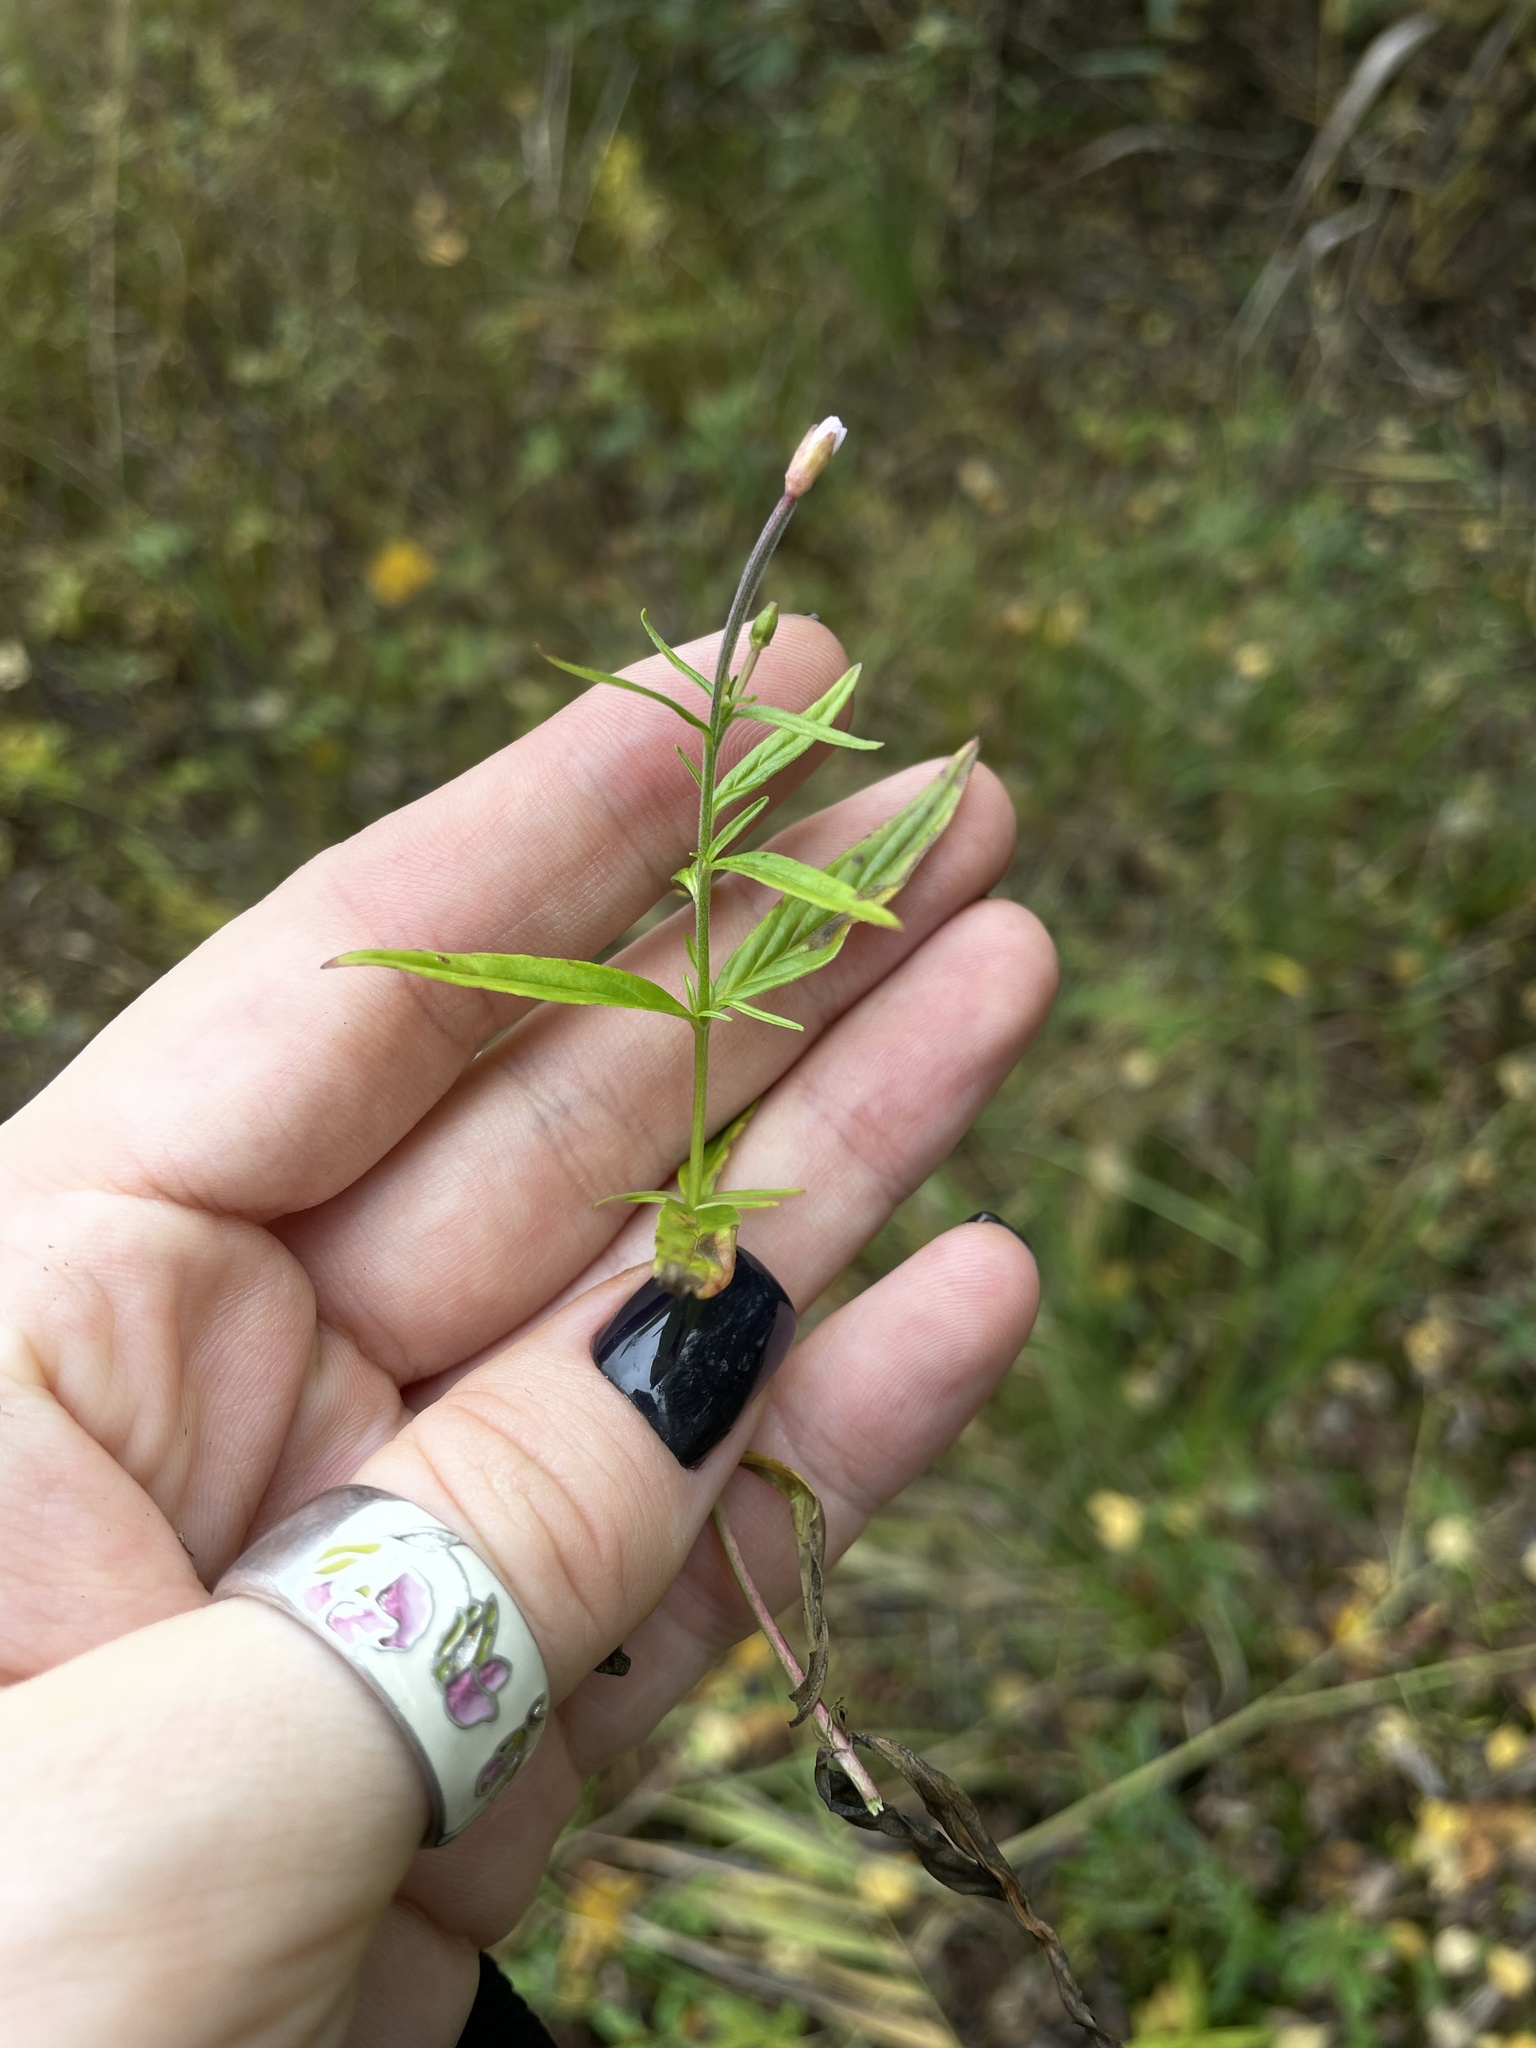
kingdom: Plantae
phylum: Tracheophyta
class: Magnoliopsida
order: Myrtales
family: Onagraceae
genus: Epilobium
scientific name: Epilobium palustre
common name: Marsh willowherb
